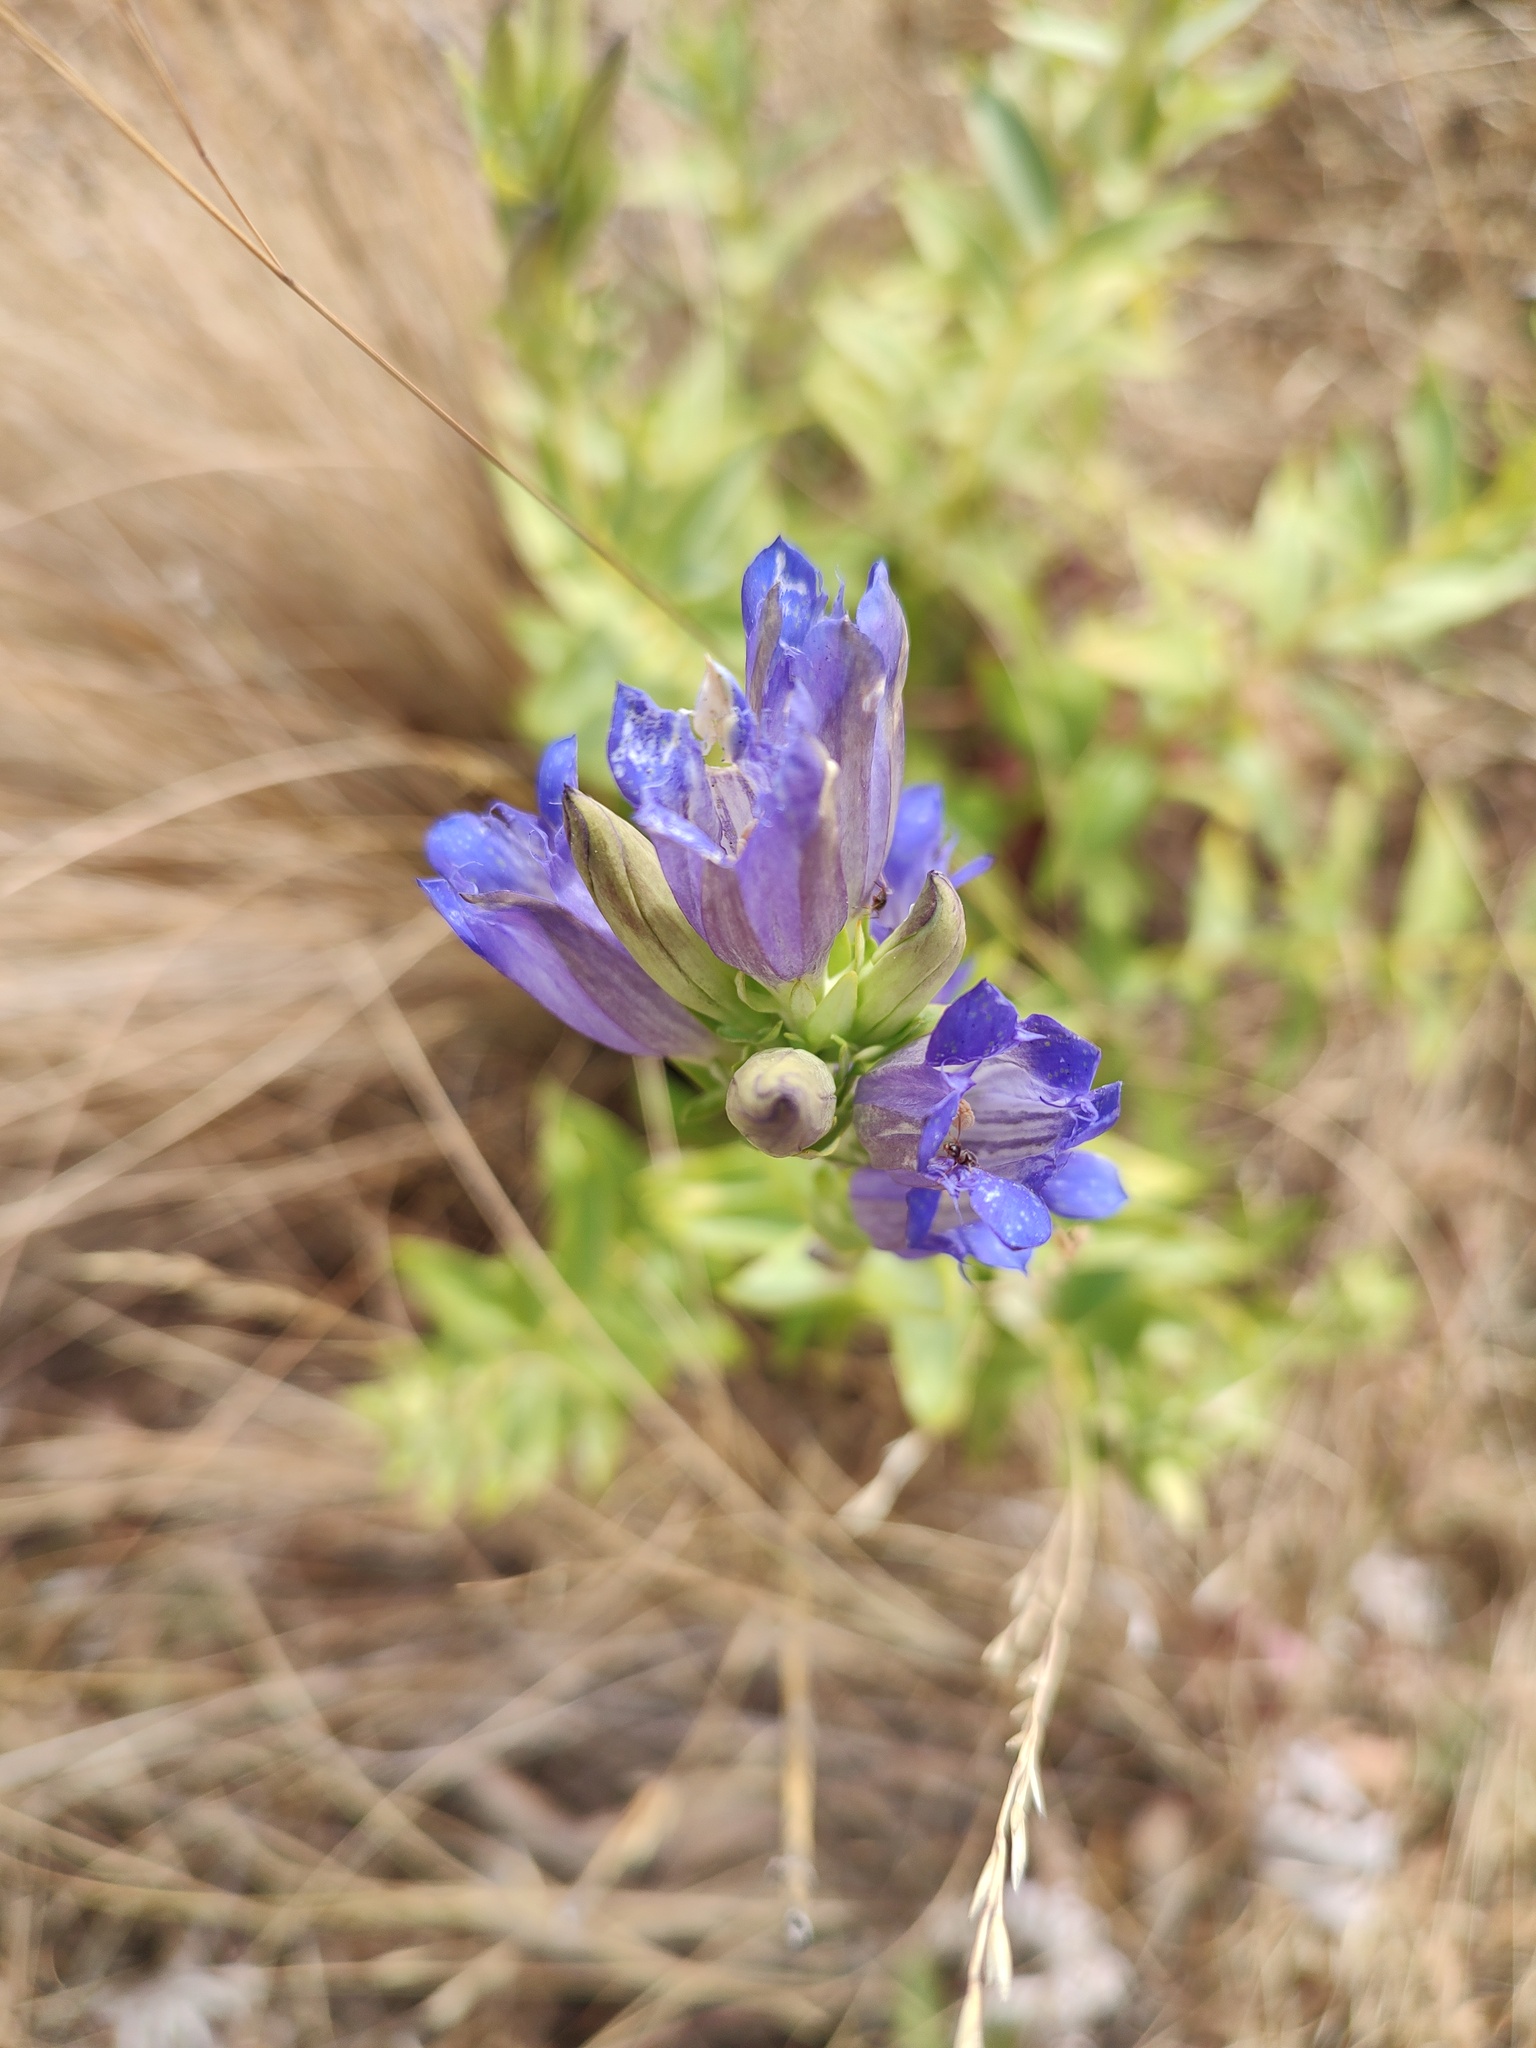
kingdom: Plantae
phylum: Tracheophyta
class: Magnoliopsida
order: Gentianales
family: Gentianaceae
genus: Gentiana
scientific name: Gentiana affinis
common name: Rocky mountain gentian
